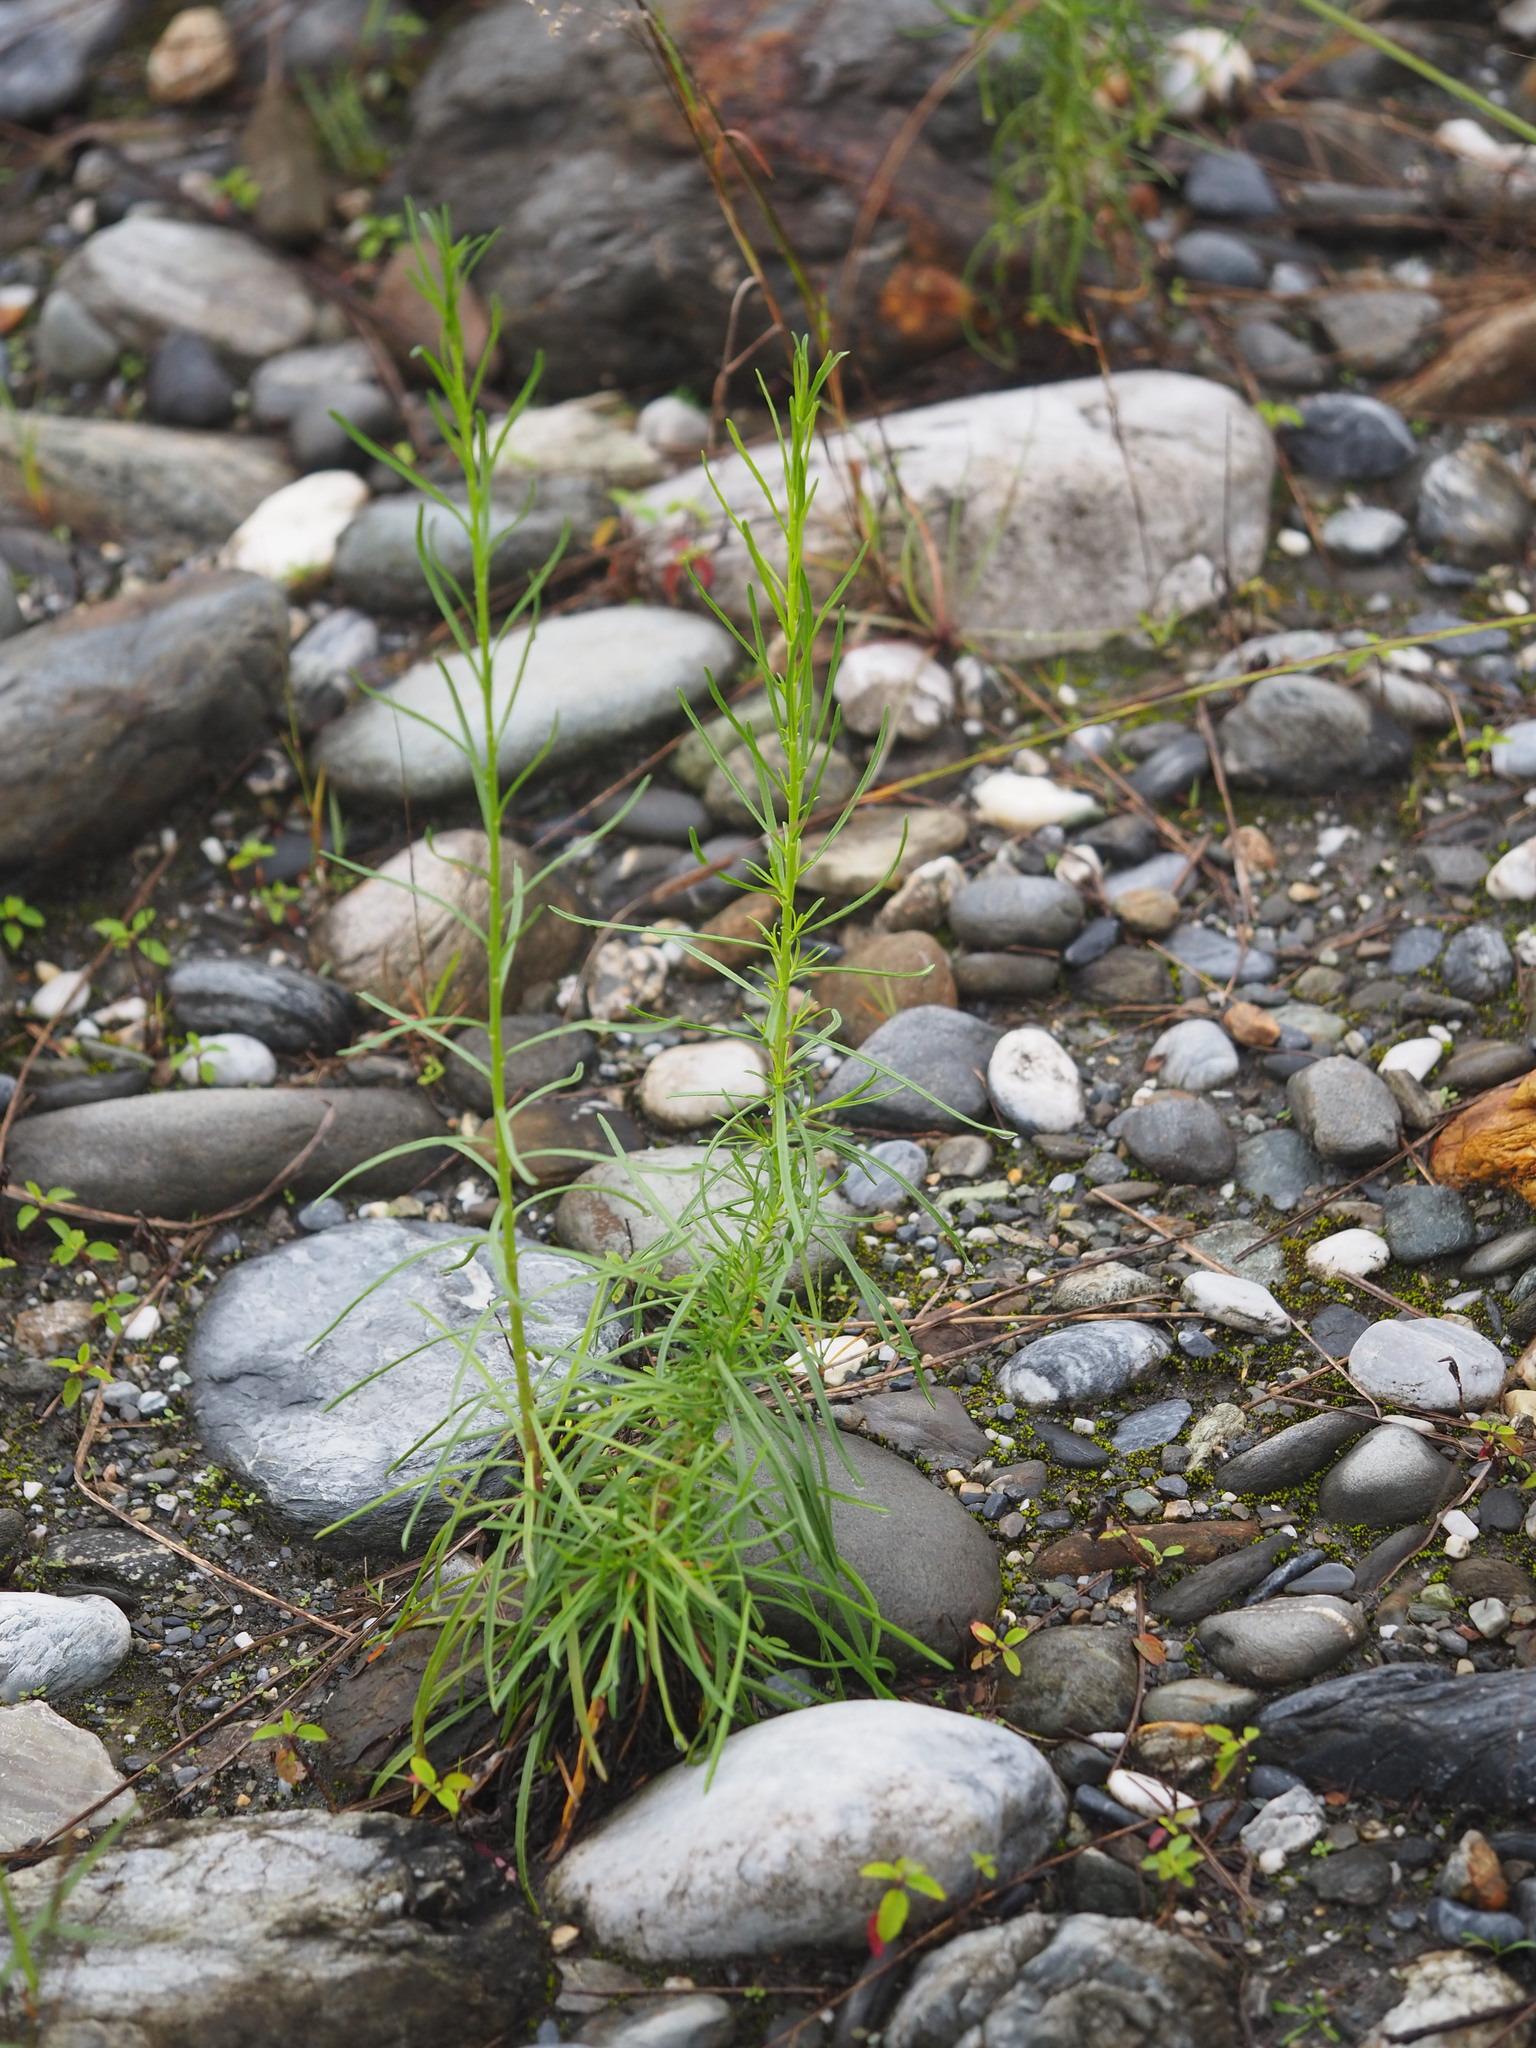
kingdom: Plantae
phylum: Tracheophyta
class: Magnoliopsida
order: Asterales
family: Asteraceae
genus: Heteropappus
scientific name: Heteropappus altaicus
